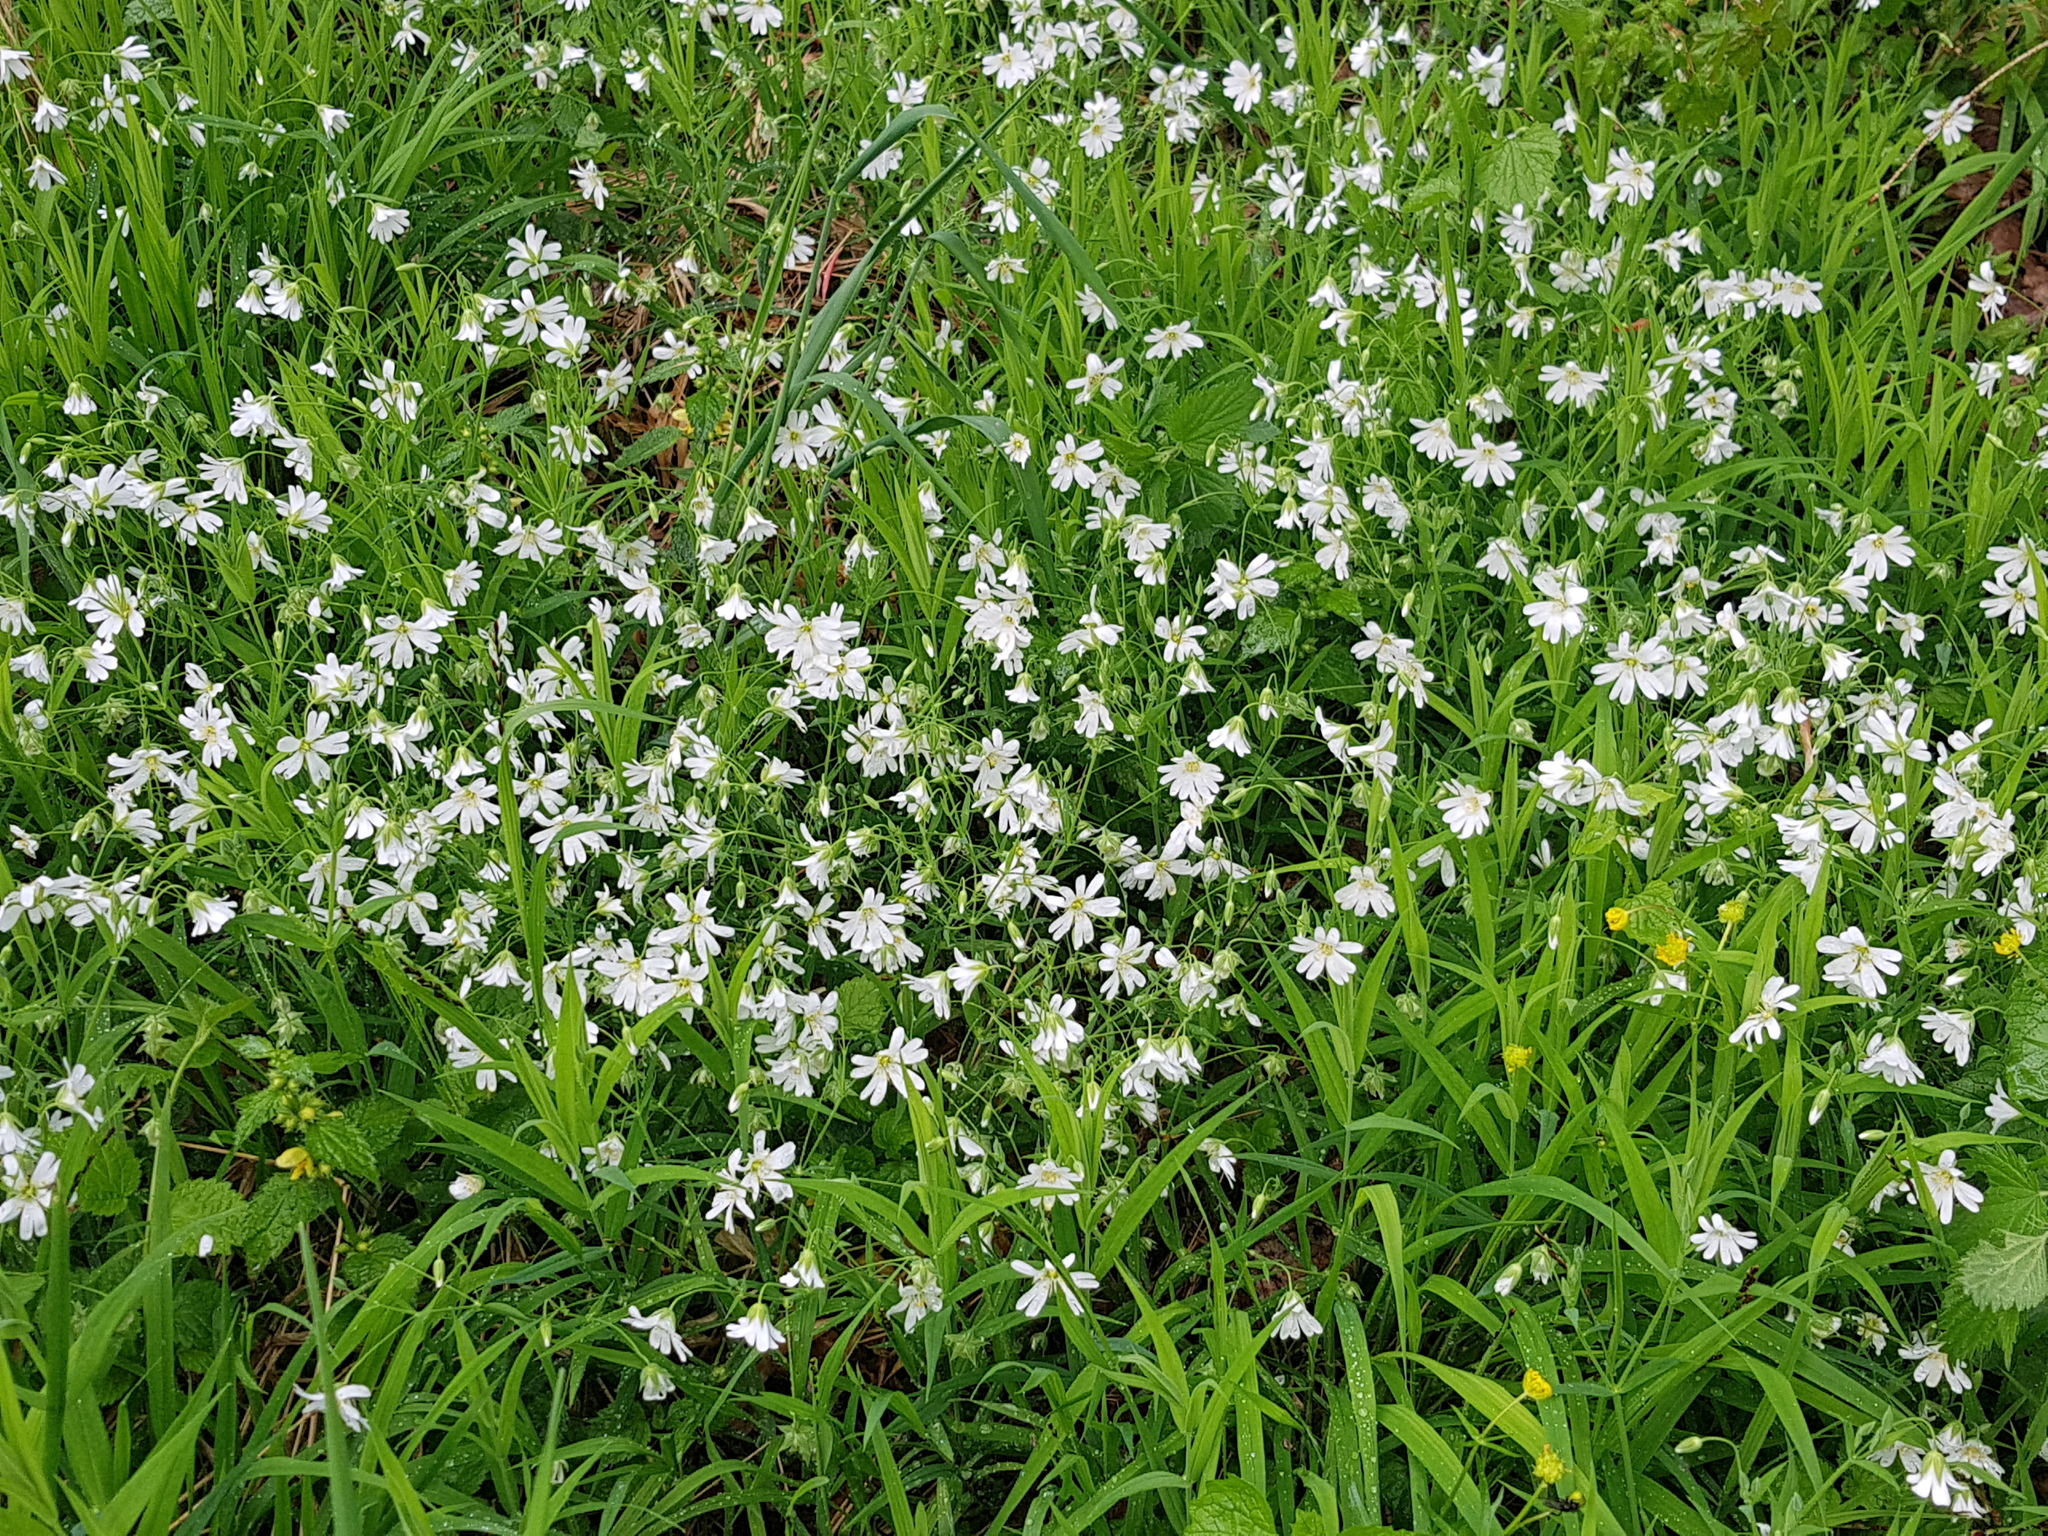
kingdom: Plantae
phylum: Tracheophyta
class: Magnoliopsida
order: Caryophyllales
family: Caryophyllaceae
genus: Rabelera
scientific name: Rabelera holostea
